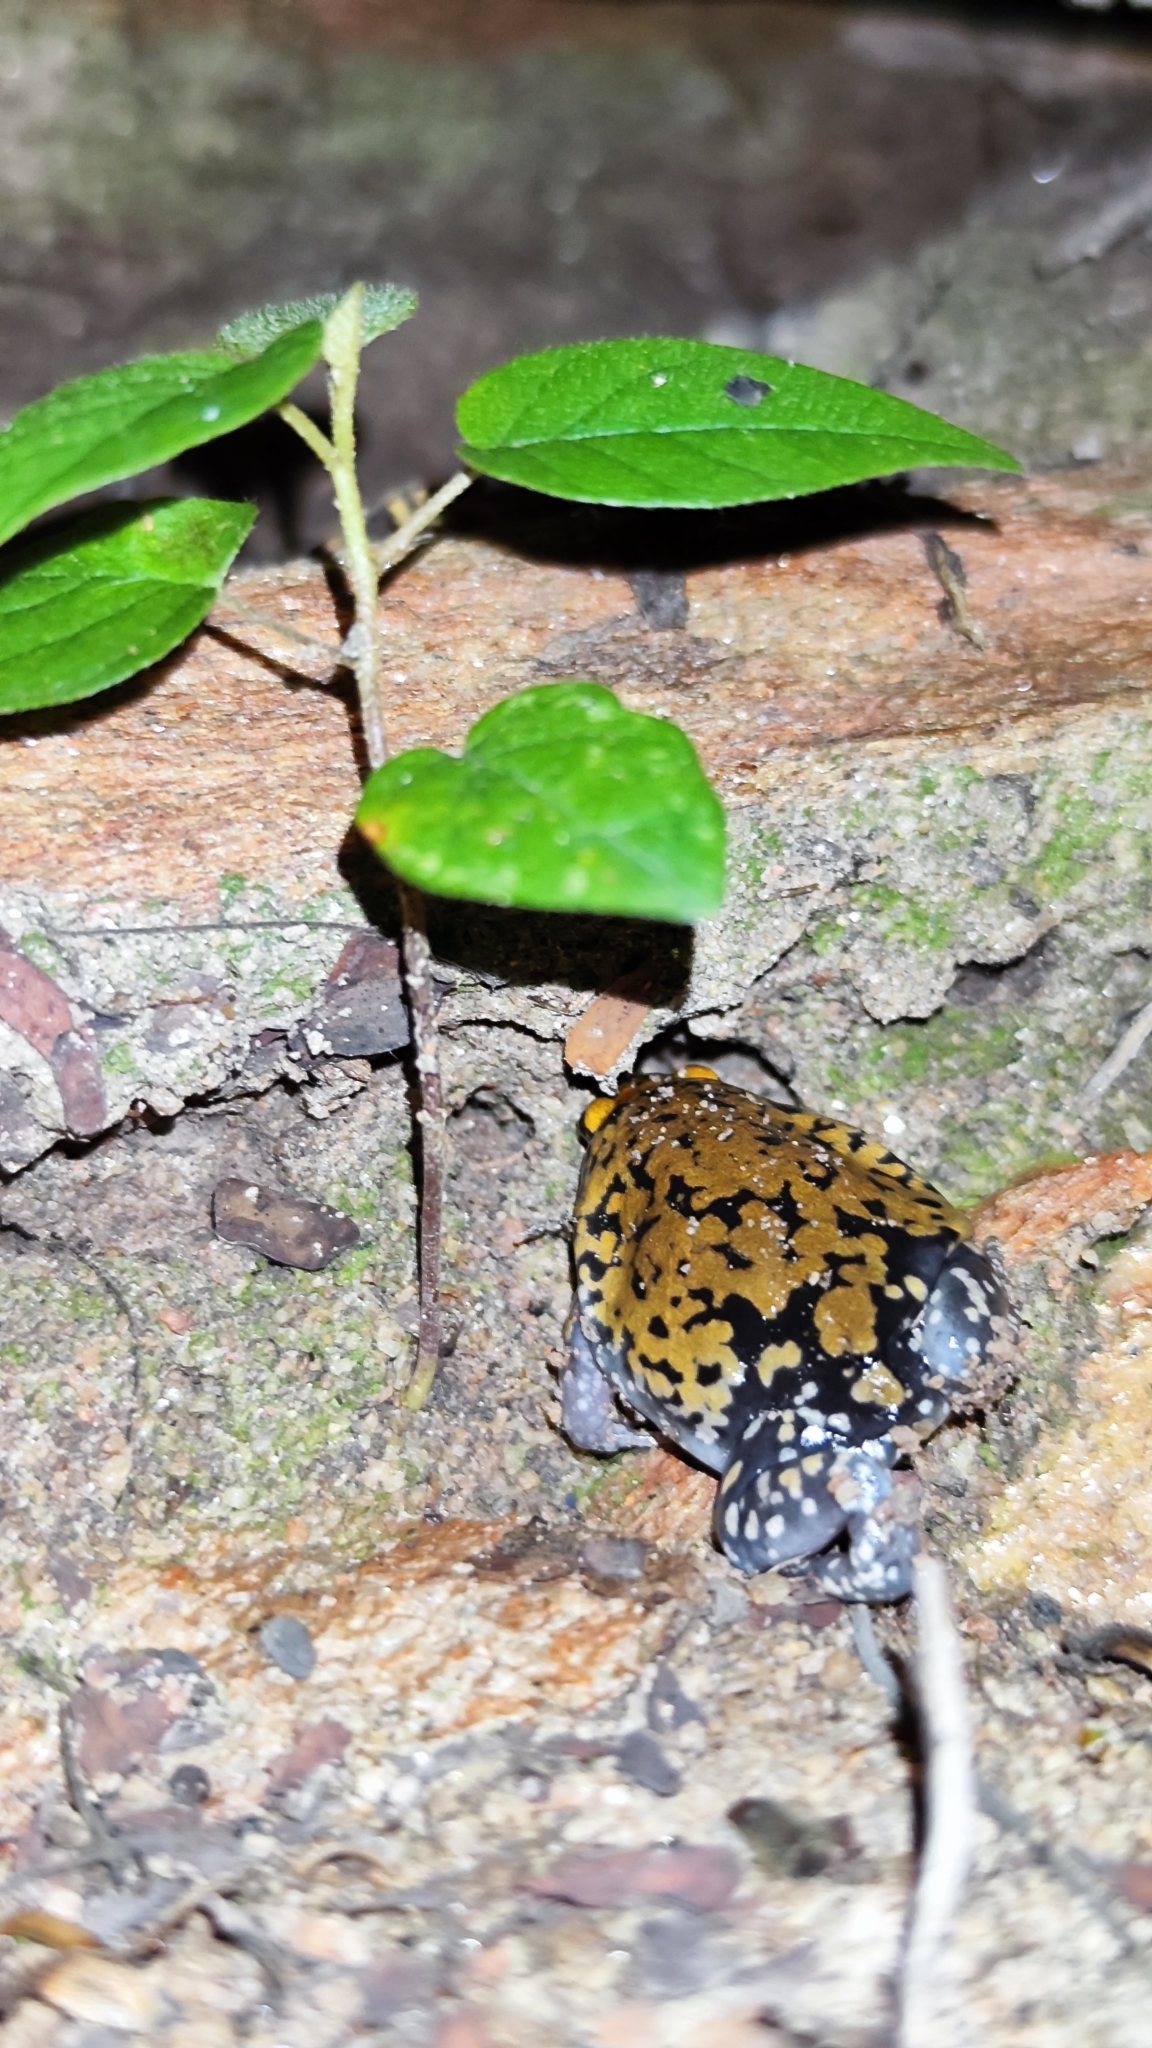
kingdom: Animalia
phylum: Chordata
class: Amphibia
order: Anura
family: Microhylidae
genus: Dermatonotus
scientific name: Dermatonotus muelleri
